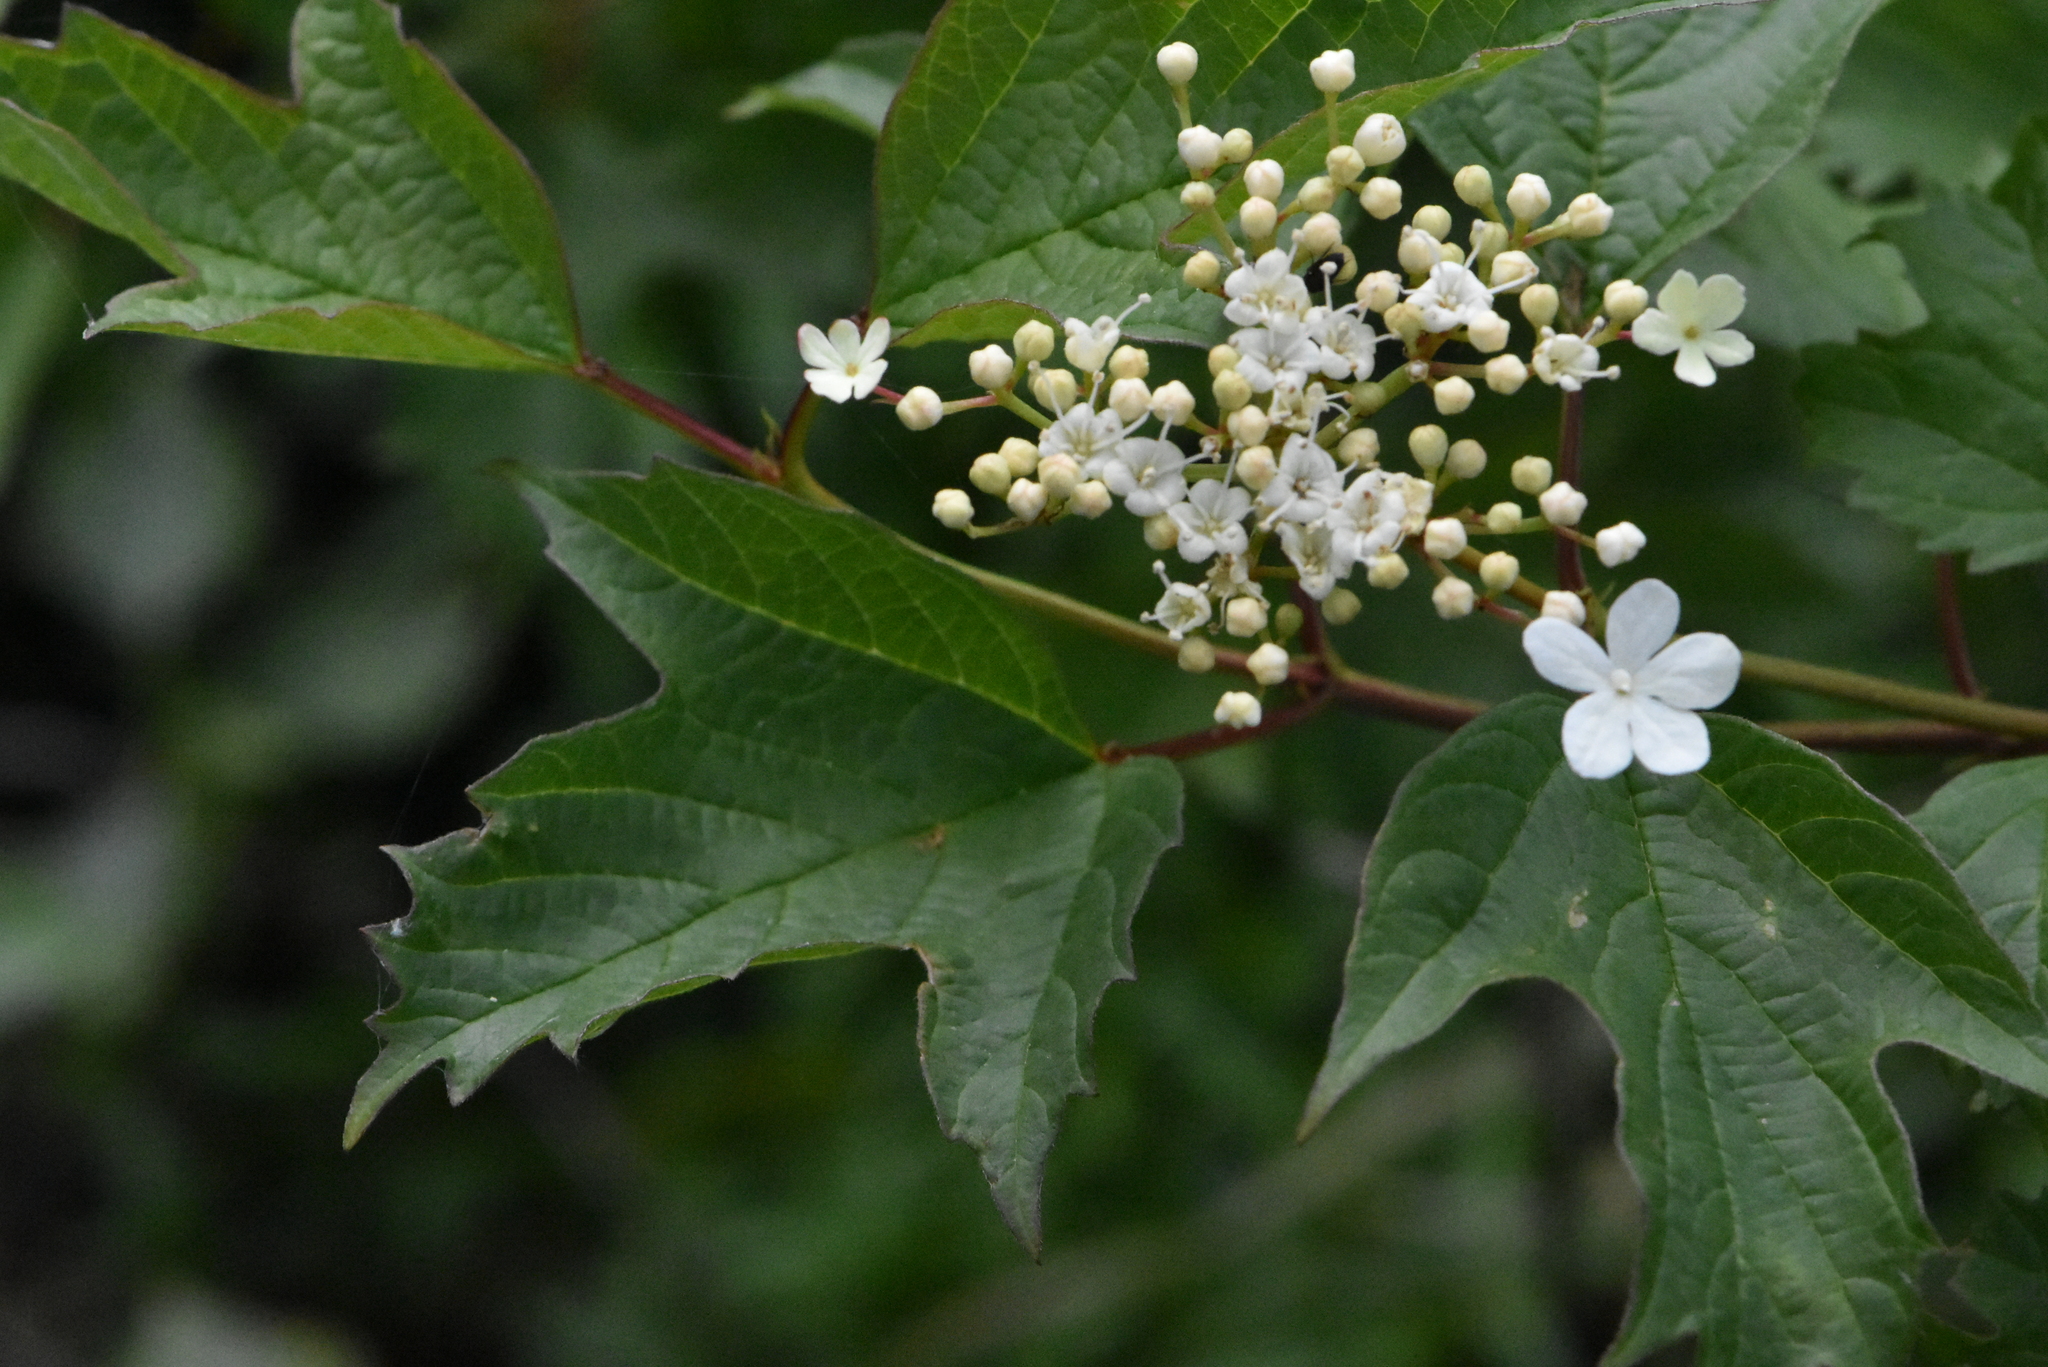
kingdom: Plantae
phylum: Tracheophyta
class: Magnoliopsida
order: Dipsacales
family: Viburnaceae
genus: Viburnum
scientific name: Viburnum opulus
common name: Guelder-rose
